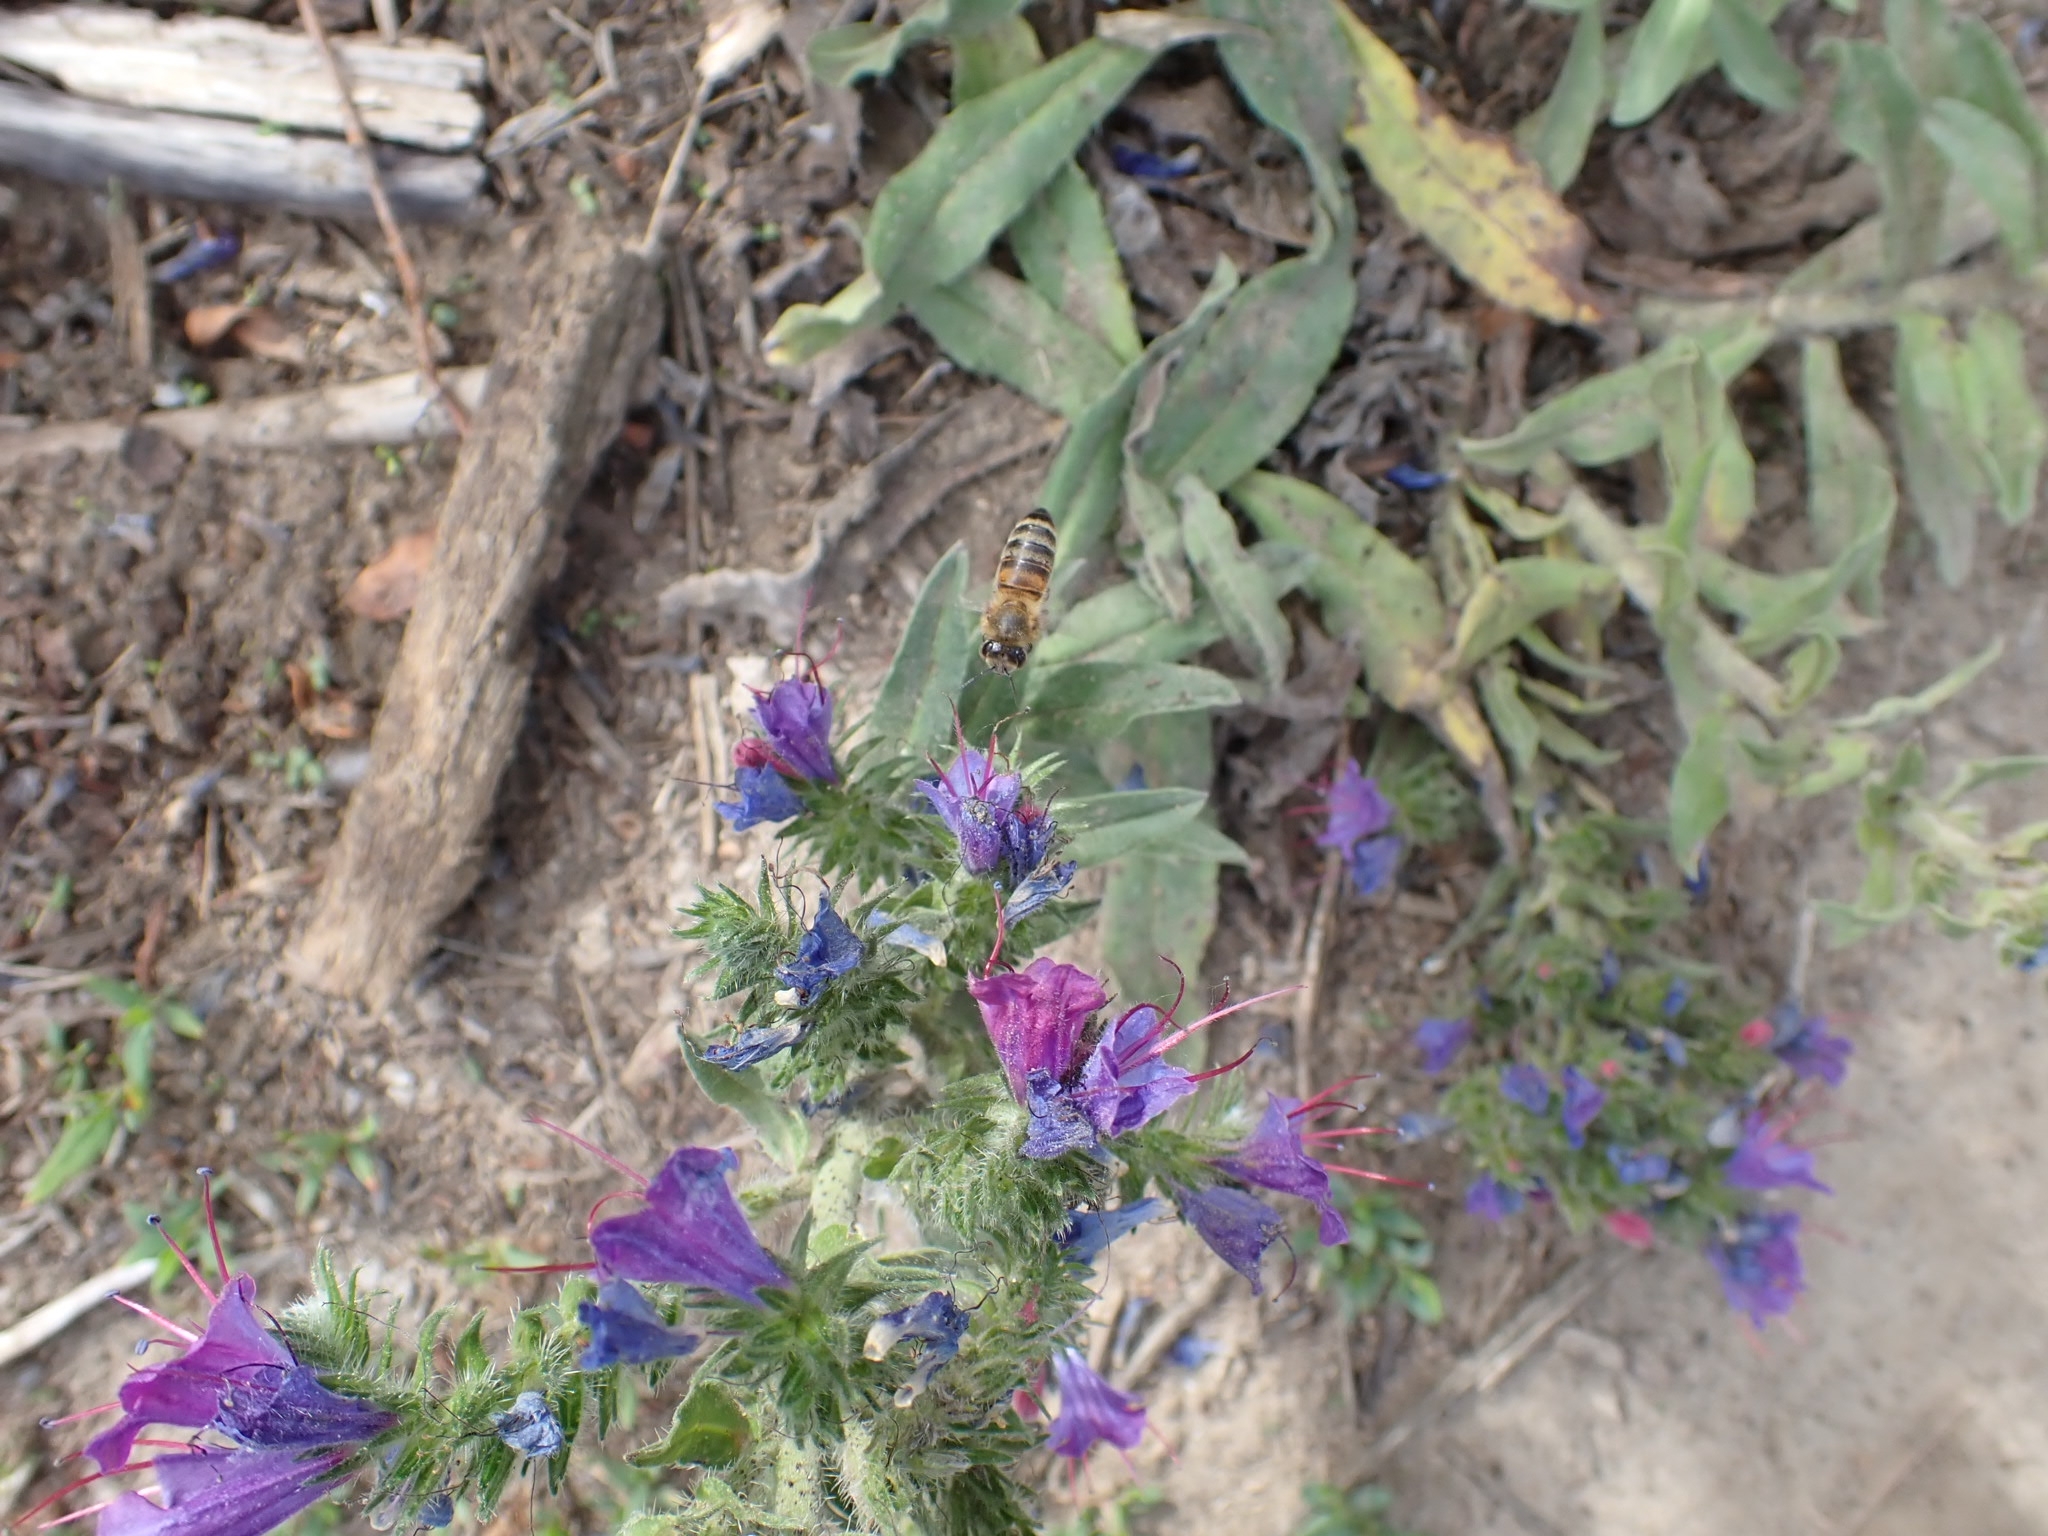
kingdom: Animalia
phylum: Arthropoda
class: Insecta
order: Hymenoptera
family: Apidae
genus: Apis
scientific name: Apis mellifera
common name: Honey bee
